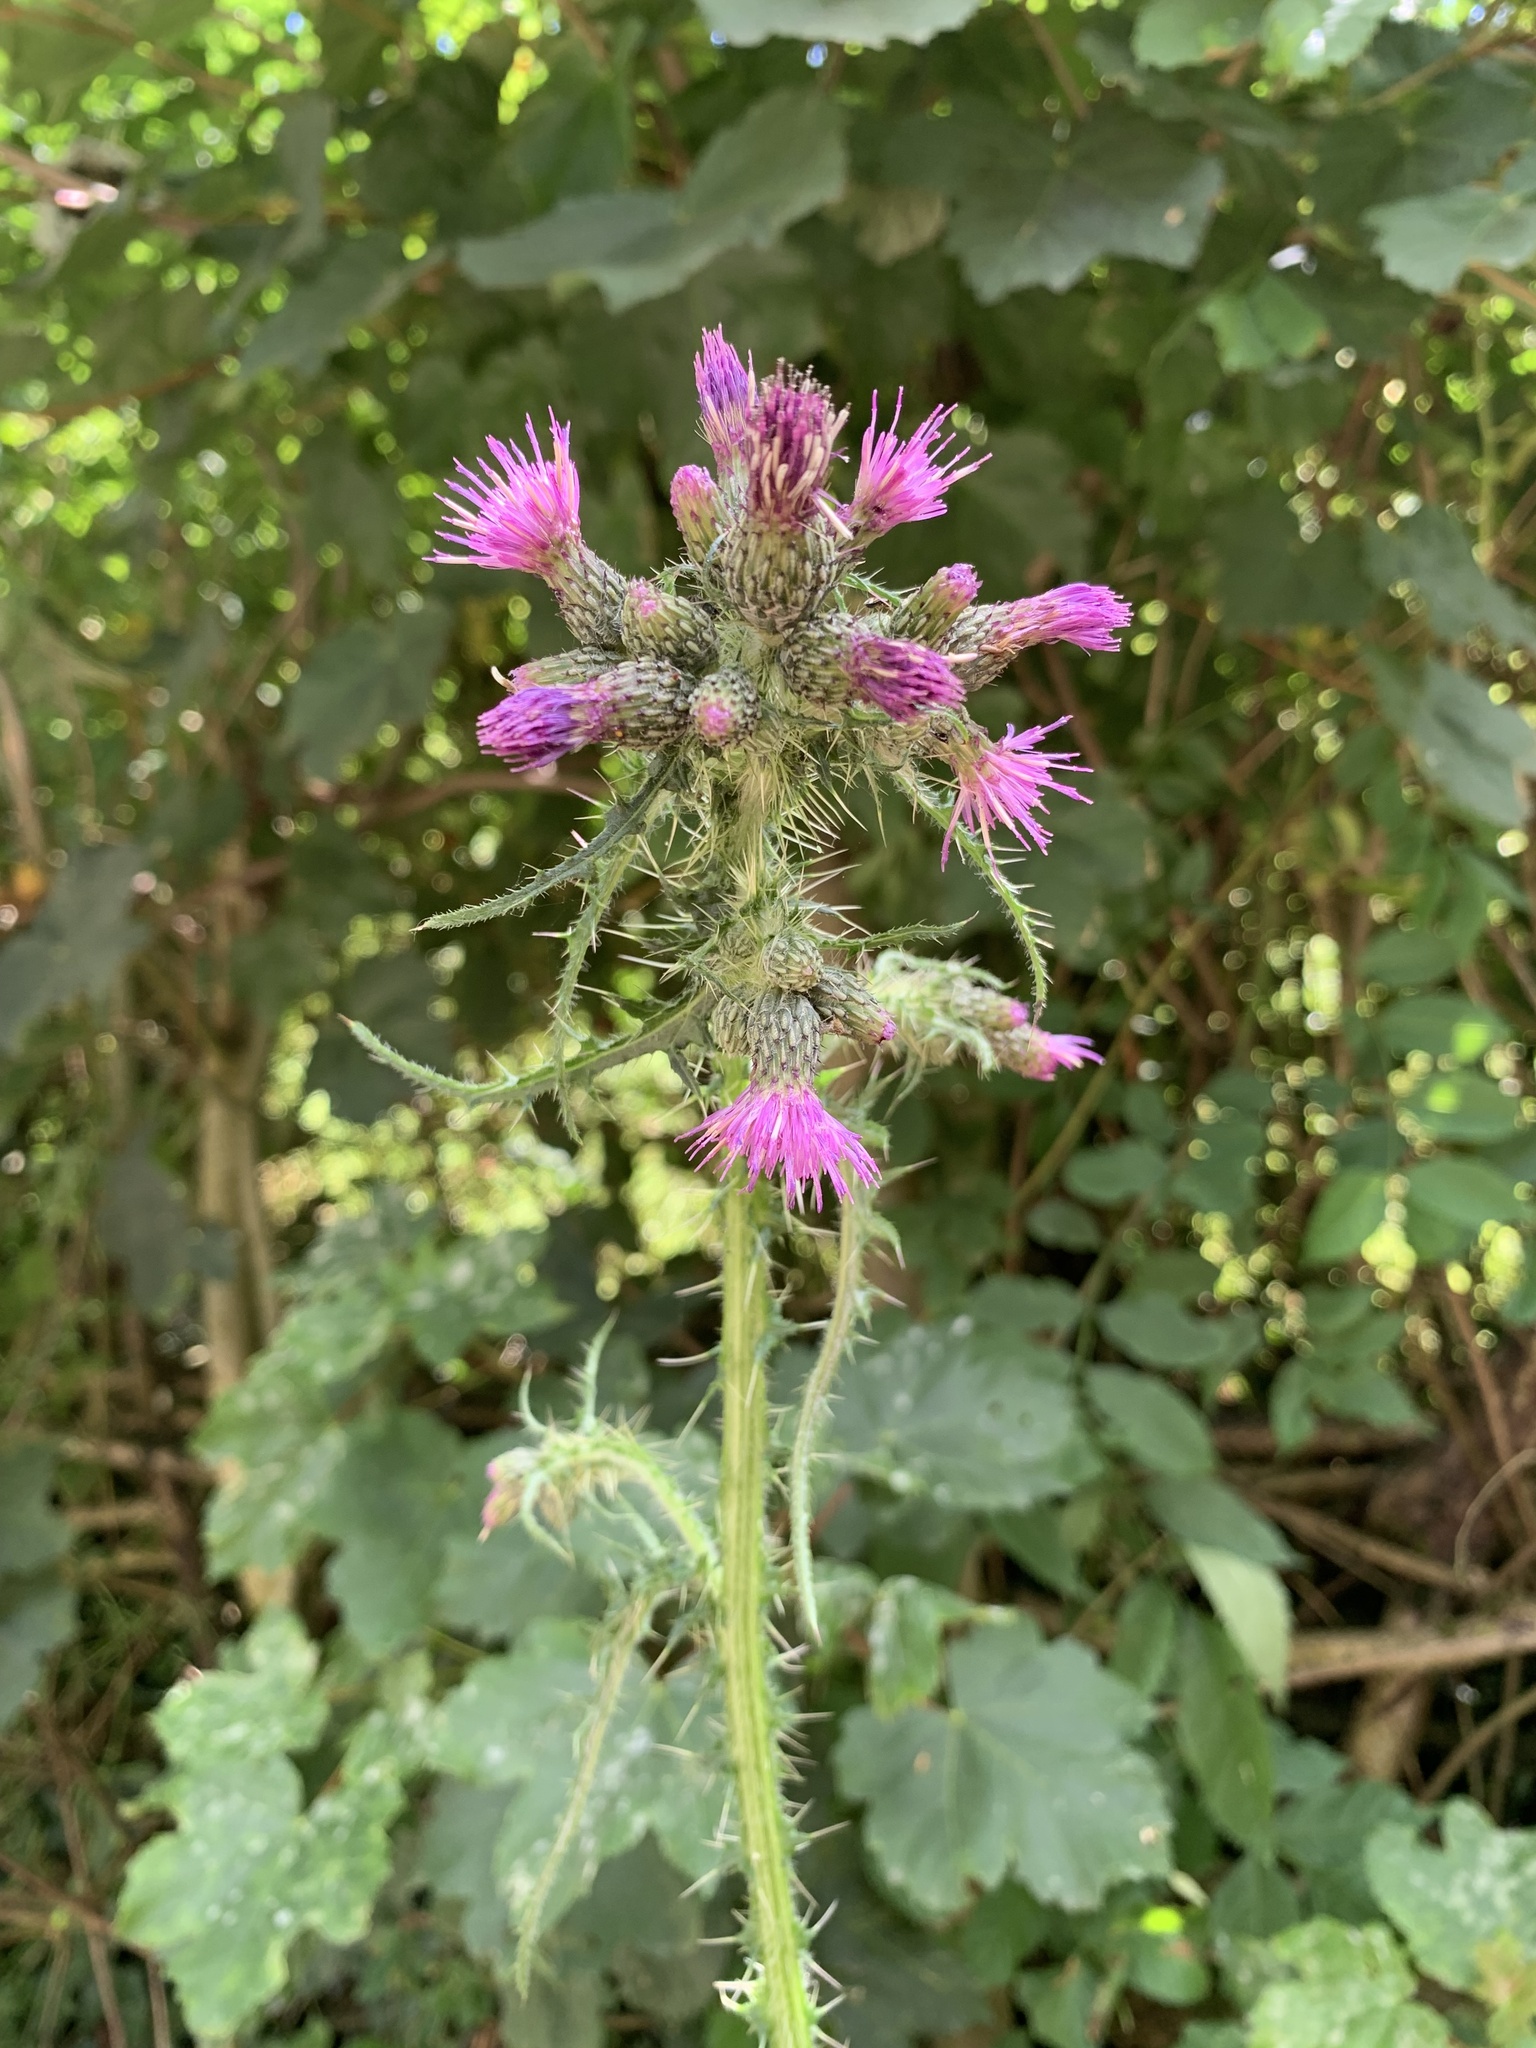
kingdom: Plantae
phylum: Tracheophyta
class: Magnoliopsida
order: Asterales
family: Asteraceae
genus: Cirsium
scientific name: Cirsium palustre
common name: Marsh thistle
